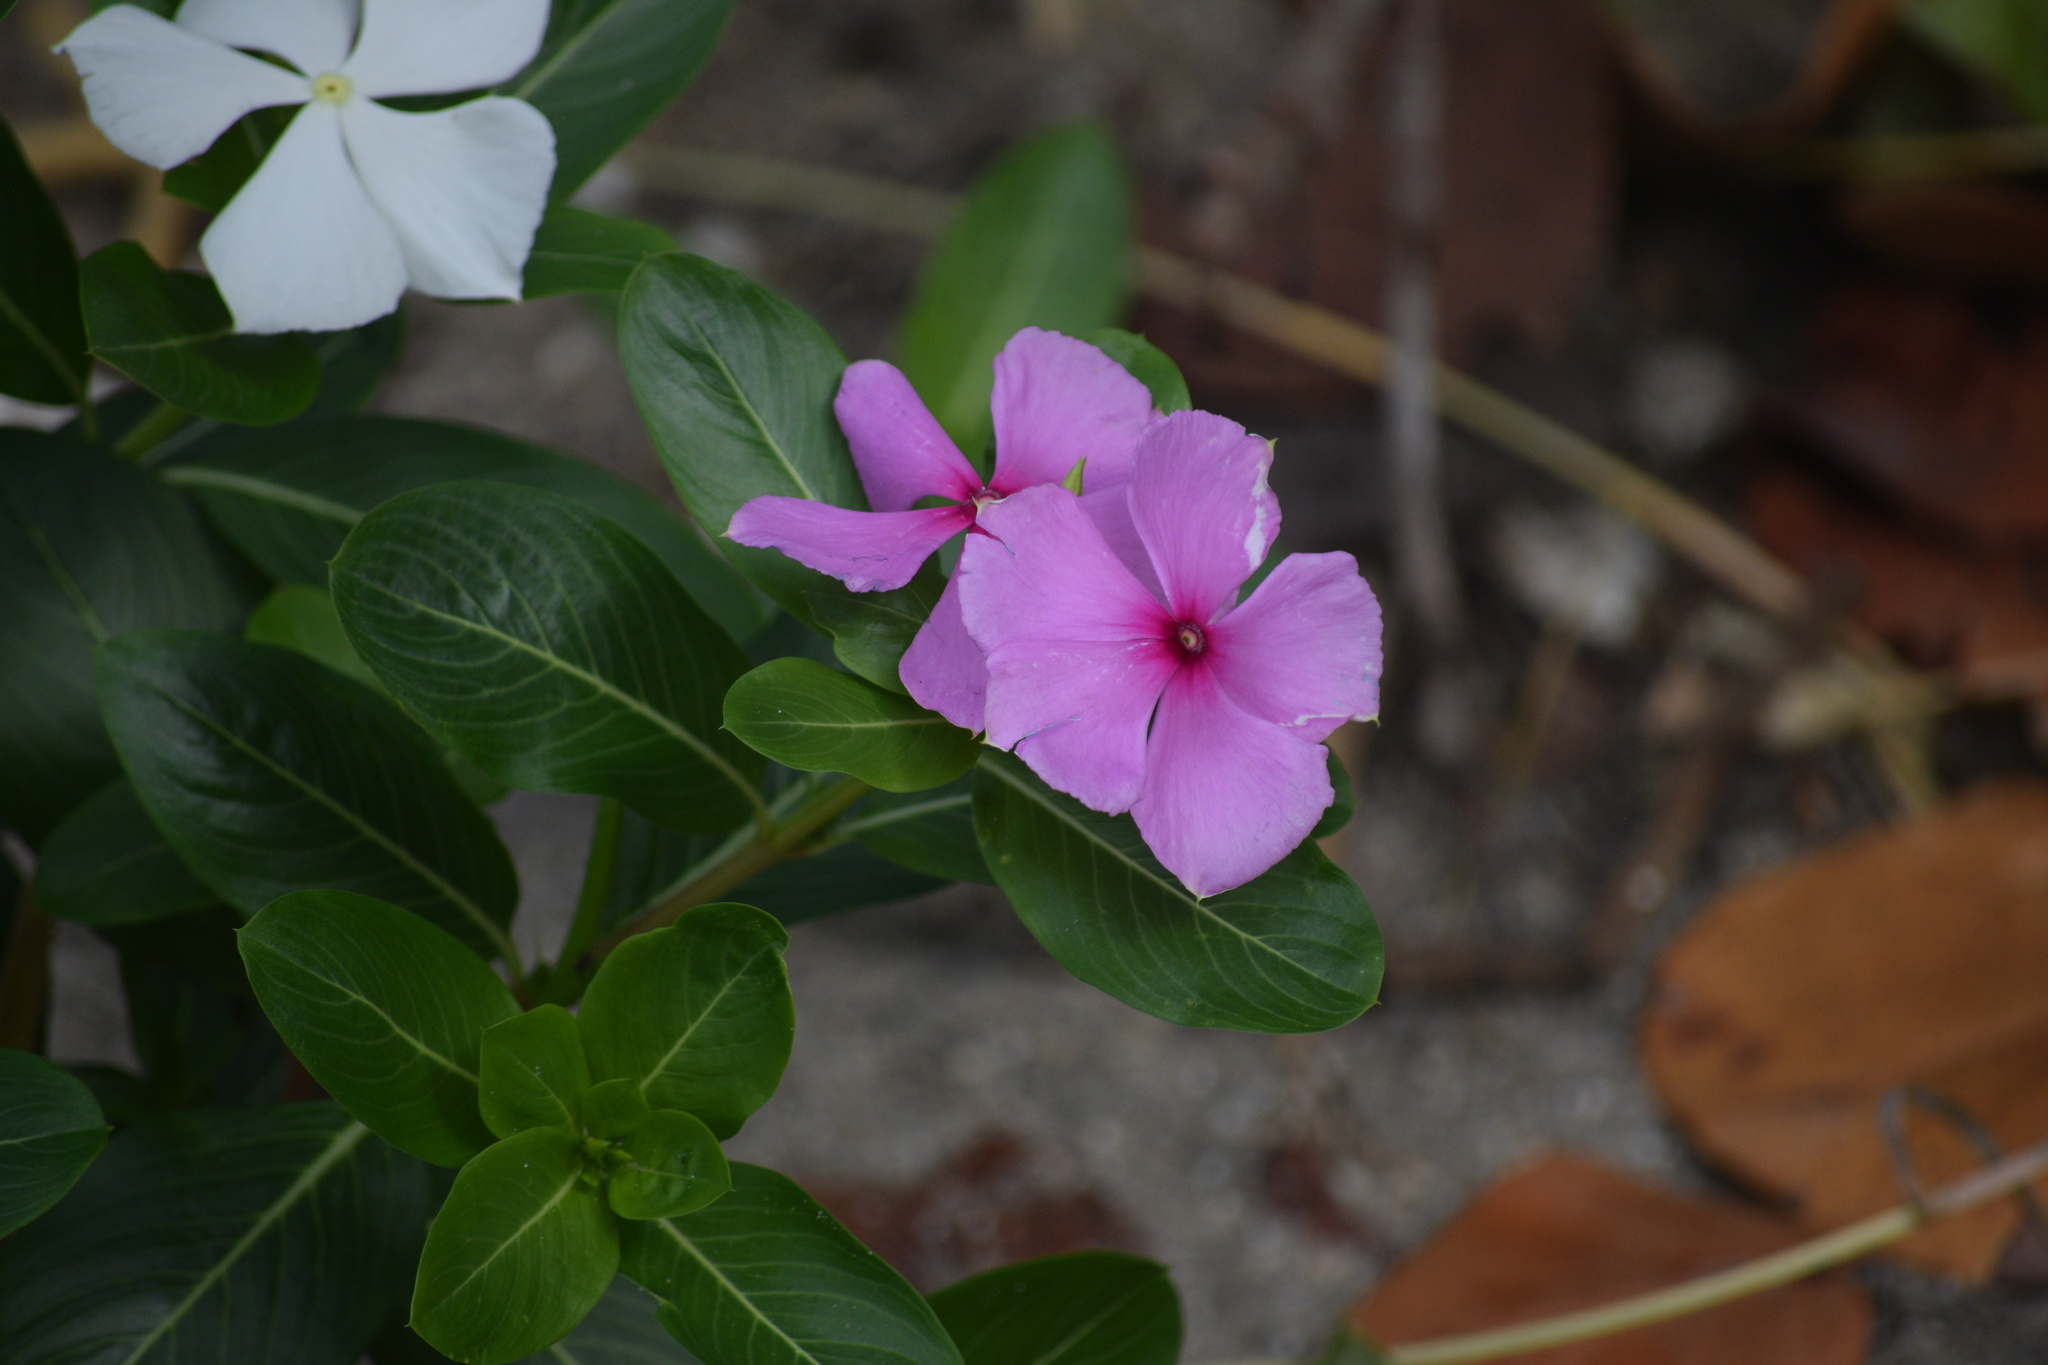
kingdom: Plantae
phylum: Tracheophyta
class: Magnoliopsida
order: Gentianales
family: Apocynaceae
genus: Catharanthus
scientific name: Catharanthus roseus
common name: Madagascar periwinkle
